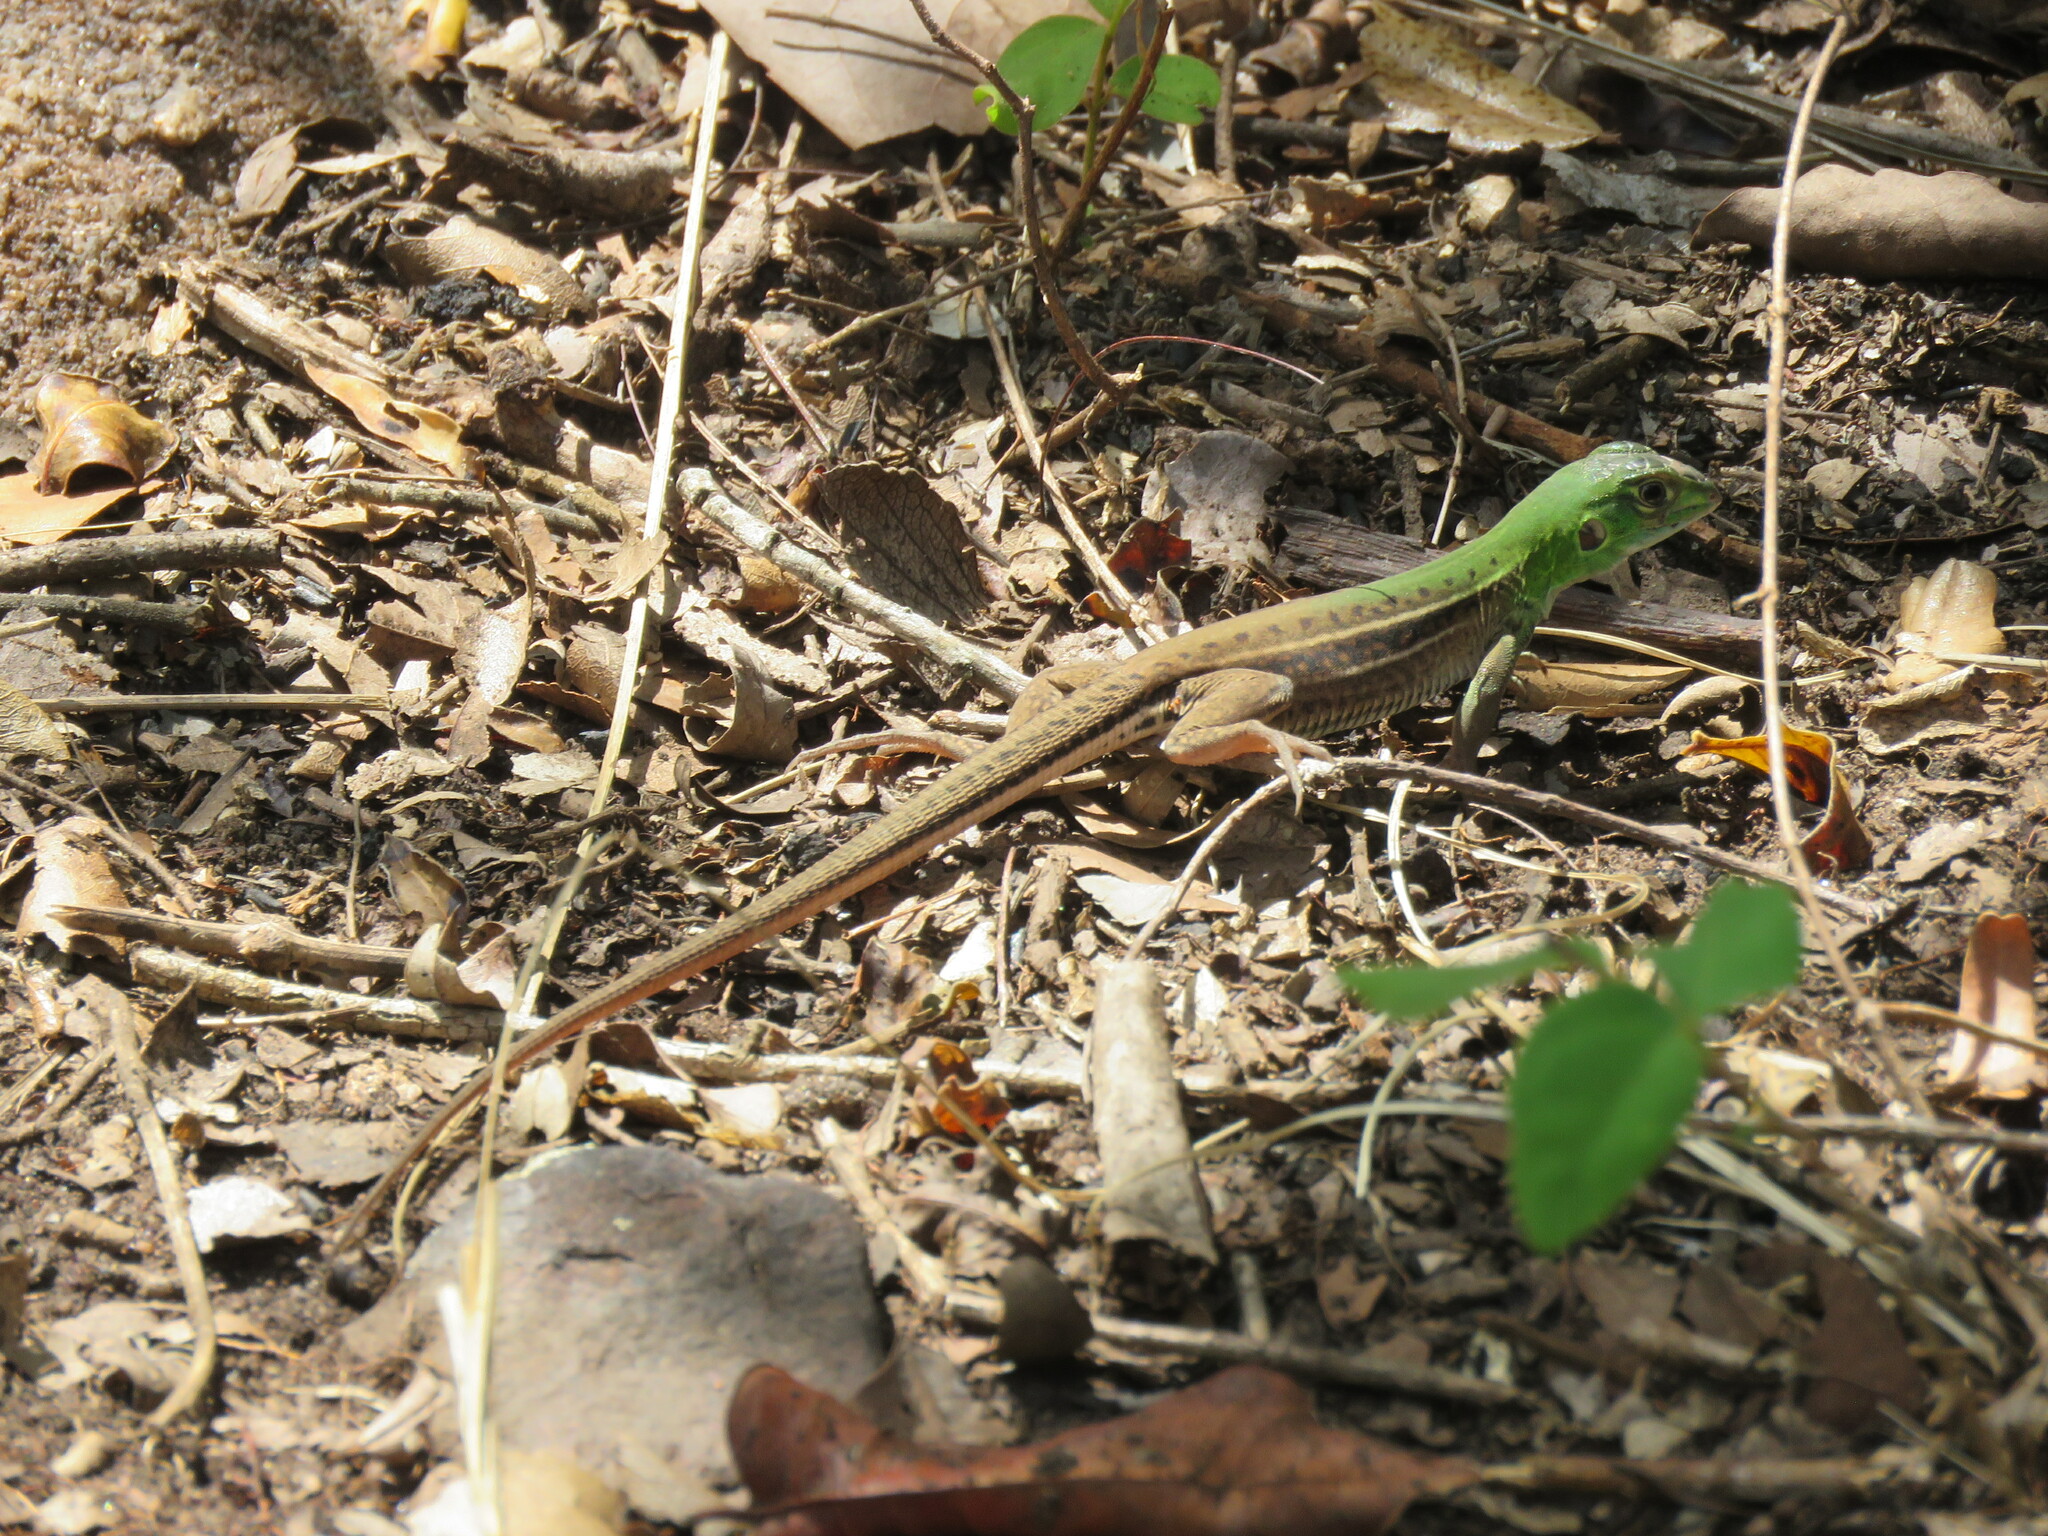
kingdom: Animalia
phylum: Chordata
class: Squamata
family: Teiidae
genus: Teius
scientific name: Teius teyou
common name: Four-toed tegu
